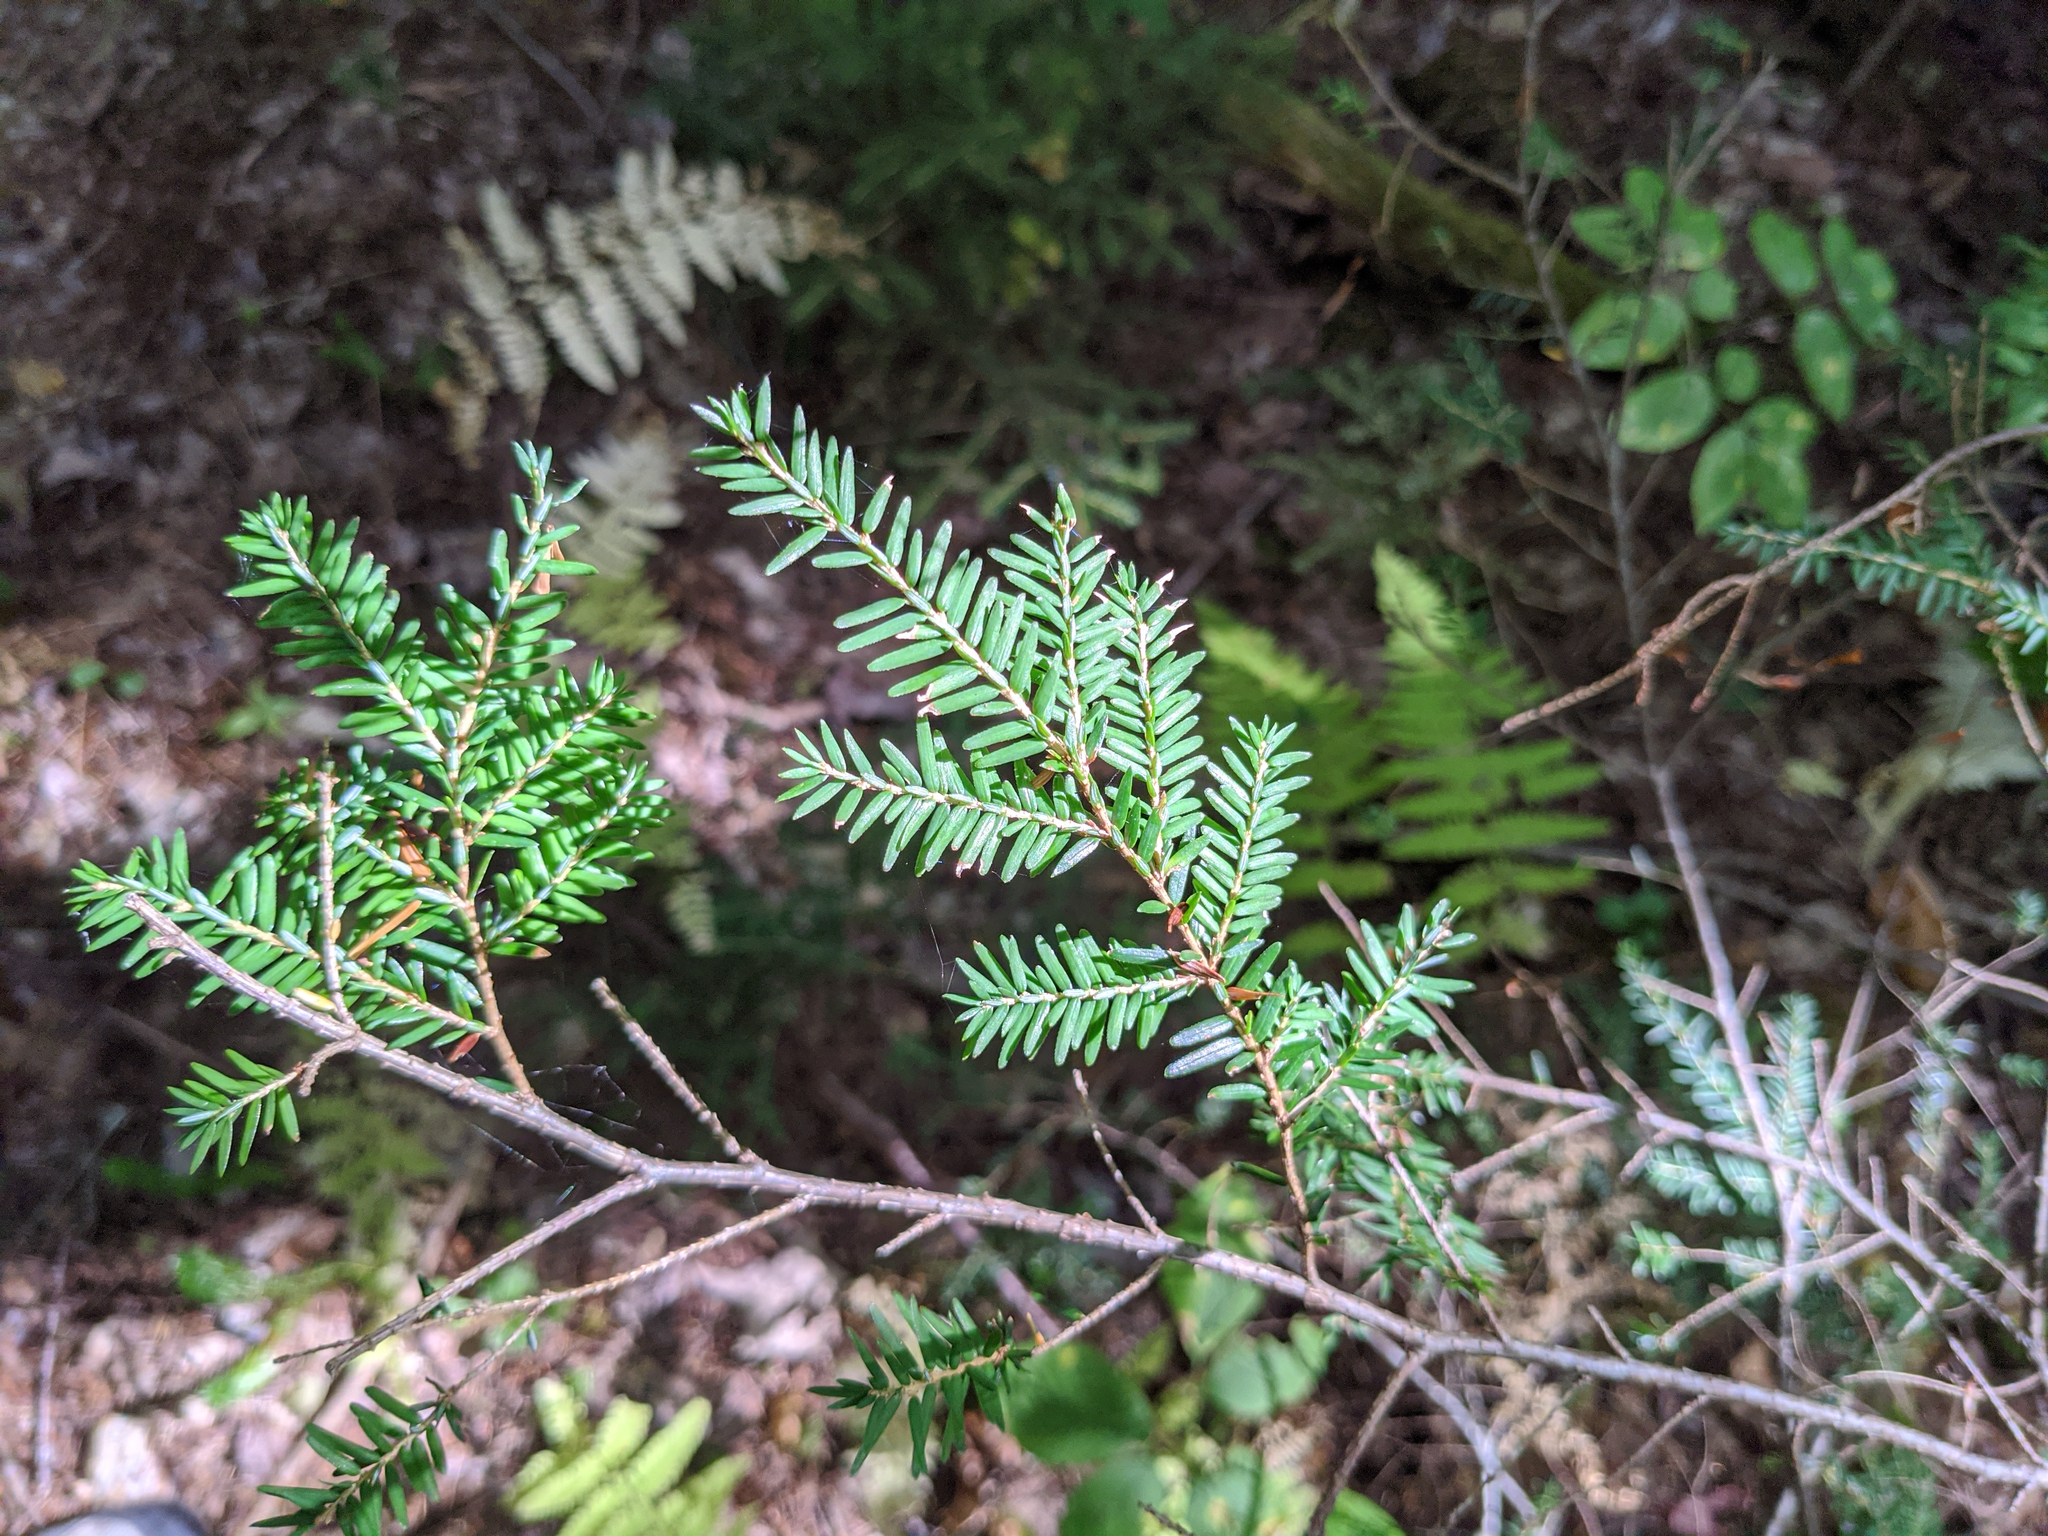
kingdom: Plantae
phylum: Tracheophyta
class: Pinopsida
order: Pinales
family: Pinaceae
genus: Tsuga
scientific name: Tsuga canadensis
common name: Eastern hemlock
